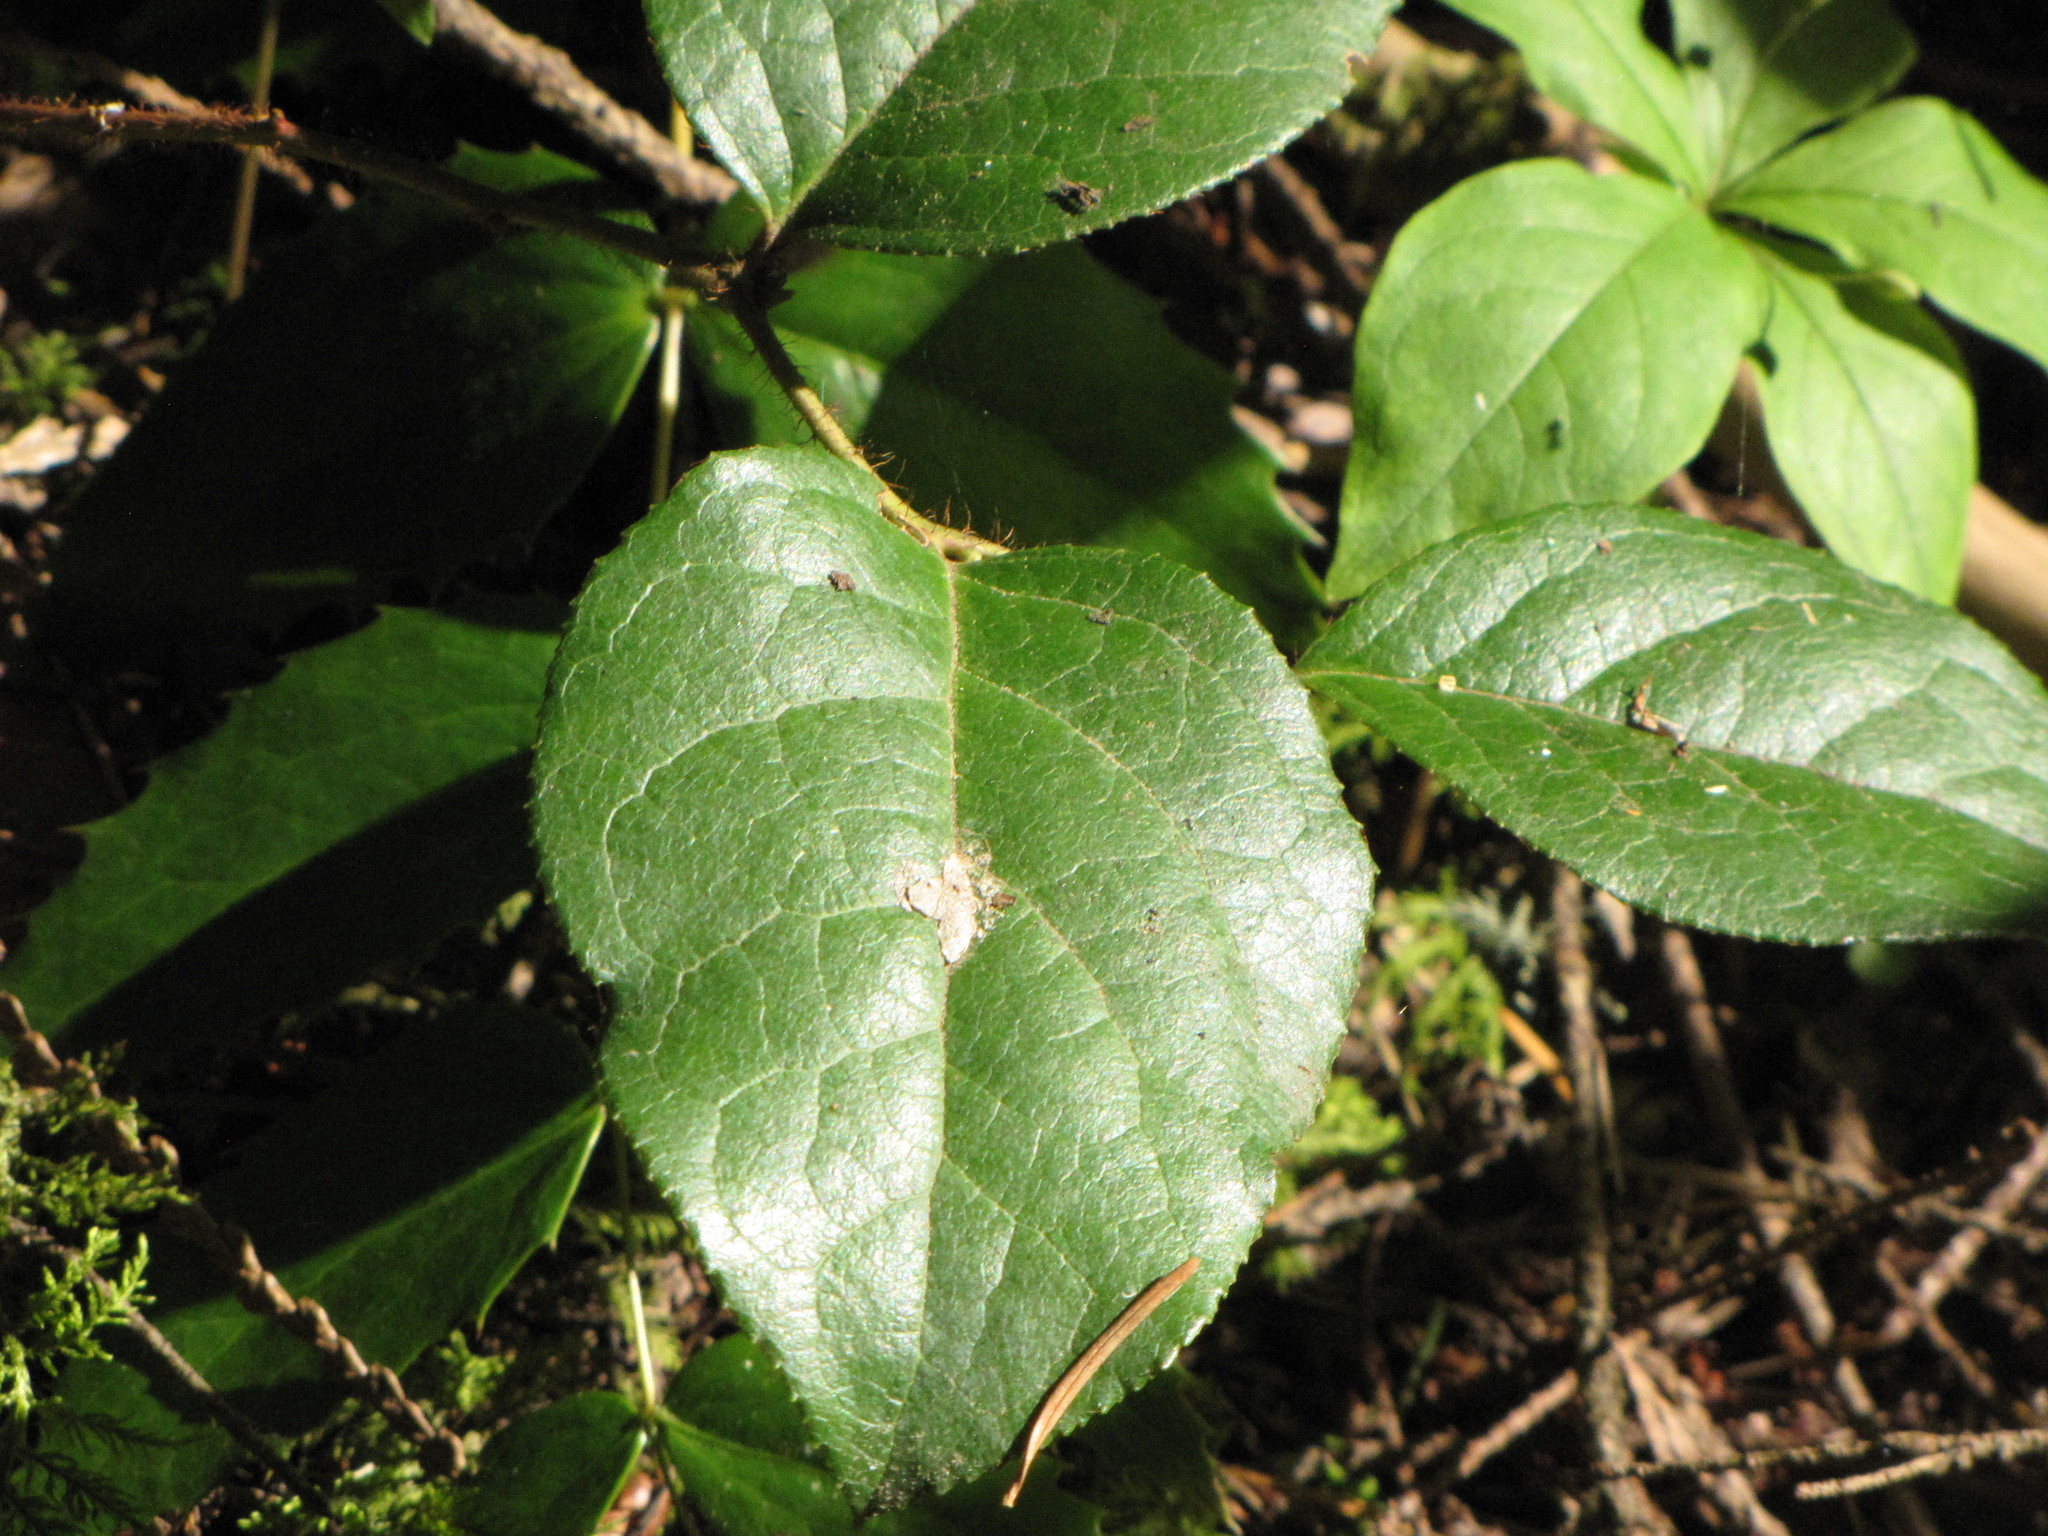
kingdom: Plantae
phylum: Tracheophyta
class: Magnoliopsida
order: Ericales
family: Ericaceae
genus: Gaultheria
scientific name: Gaultheria shallon
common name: Shallon
